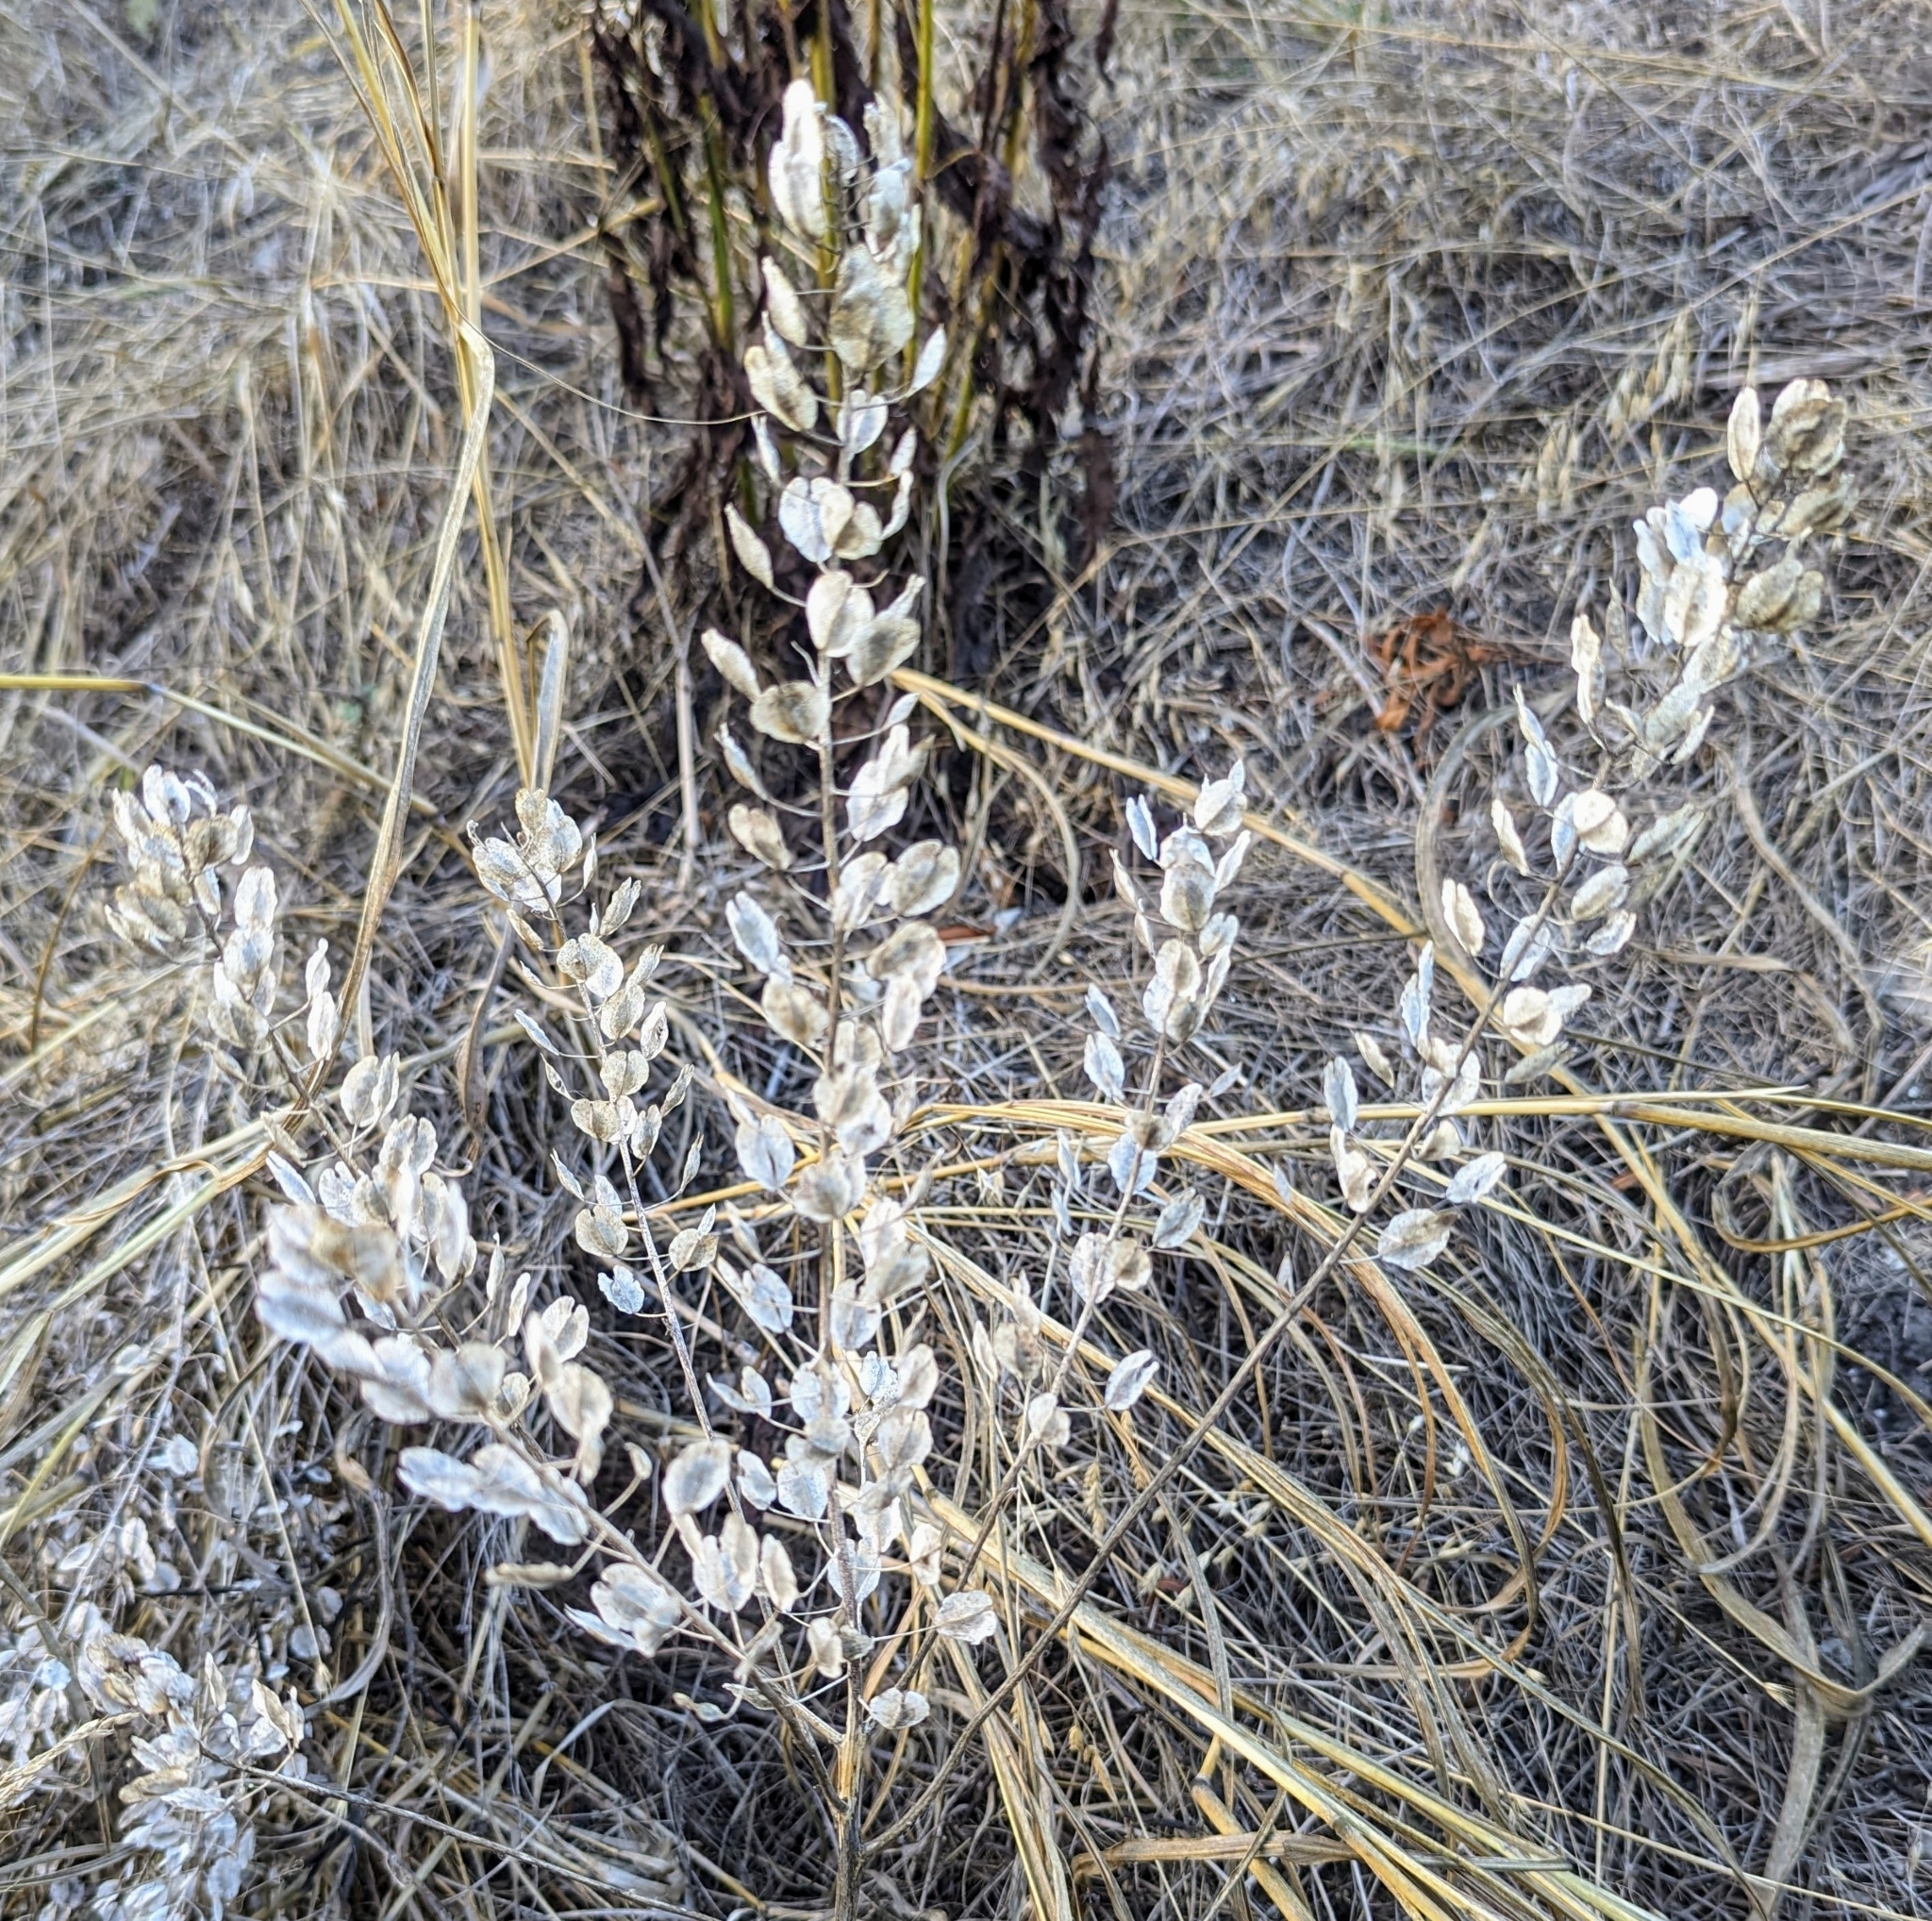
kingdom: Plantae
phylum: Tracheophyta
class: Magnoliopsida
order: Brassicales
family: Brassicaceae
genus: Thlaspi
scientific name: Thlaspi arvense
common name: Field pennycress
